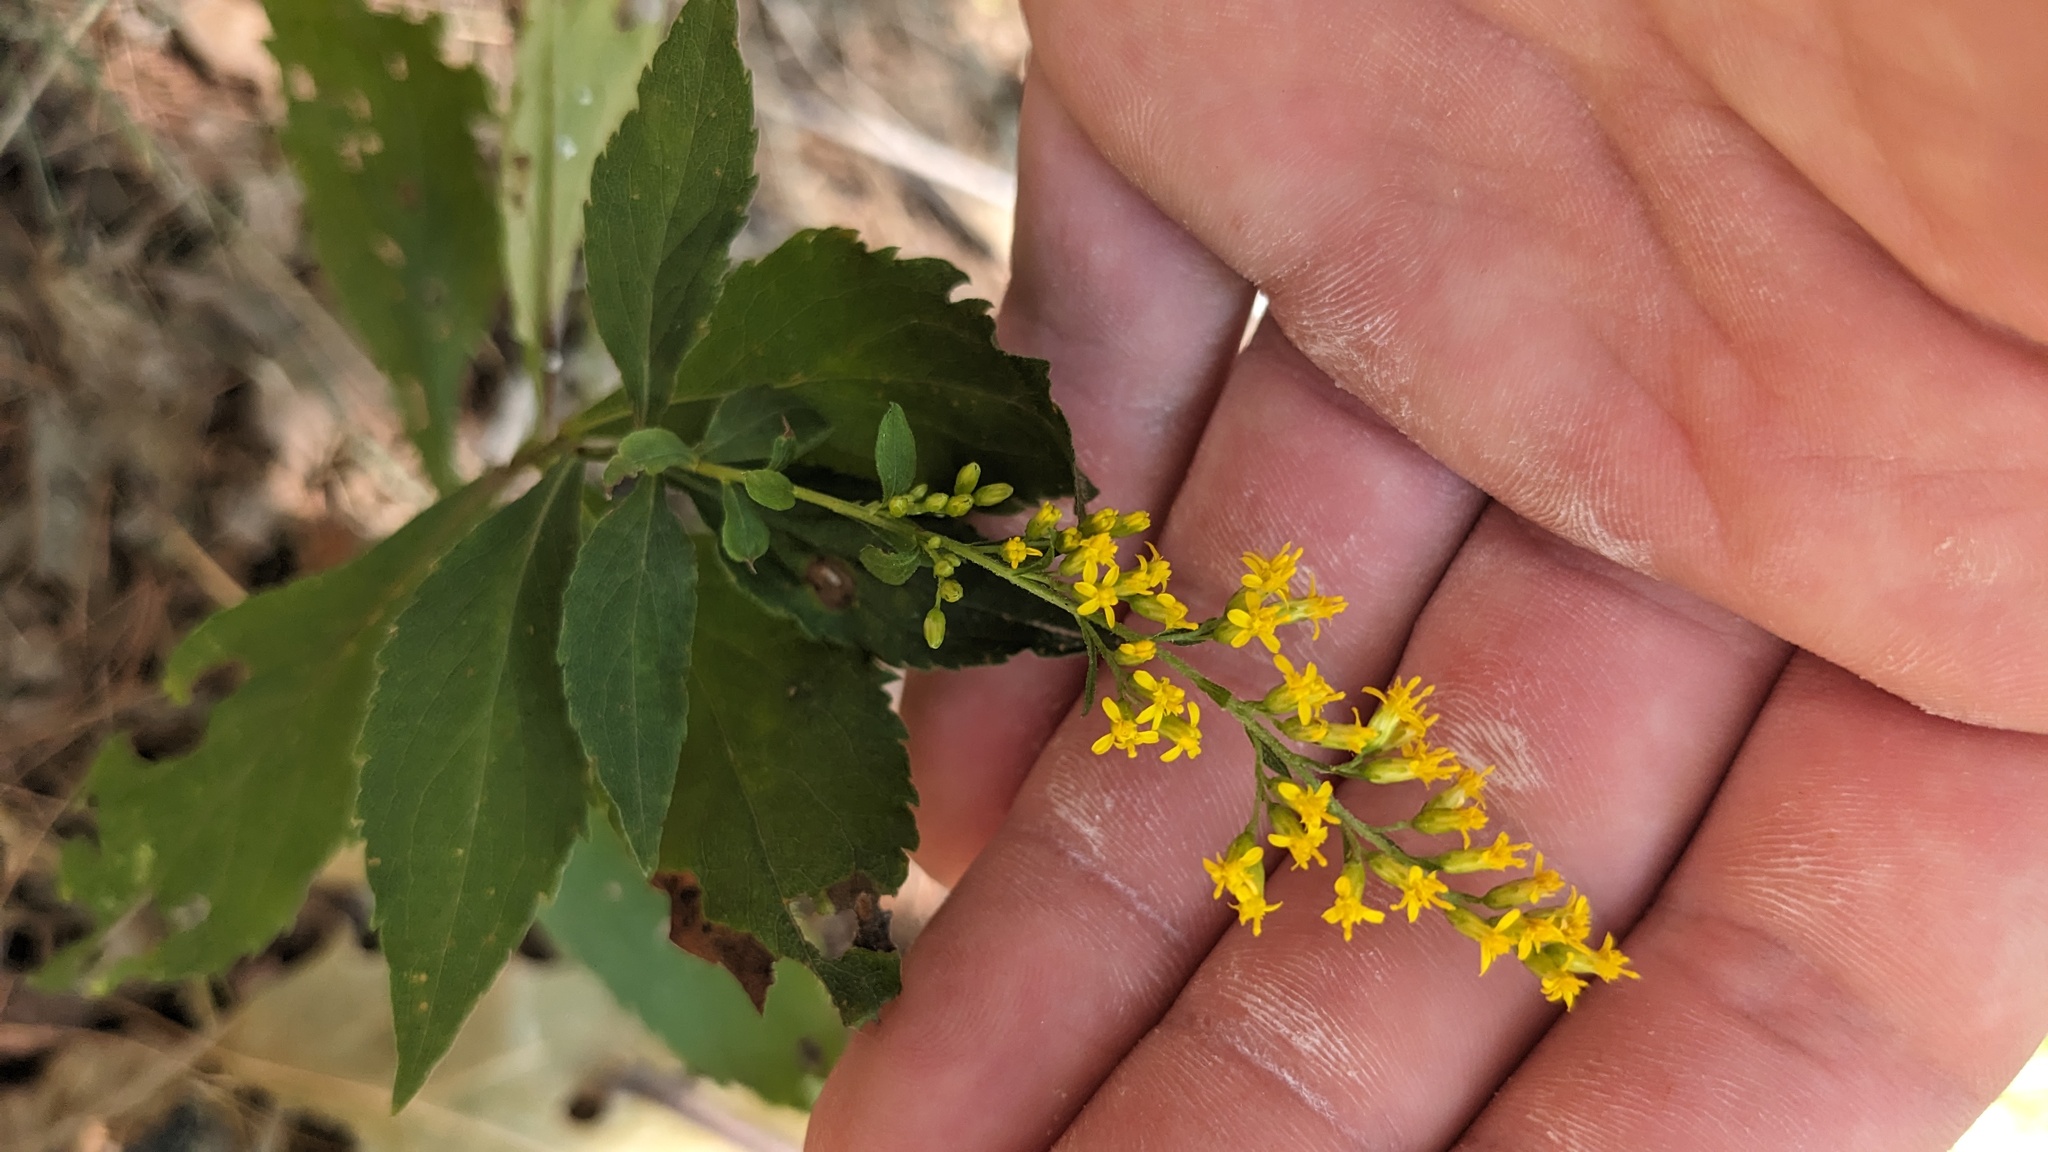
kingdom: Plantae
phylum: Tracheophyta
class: Magnoliopsida
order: Asterales
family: Asteraceae
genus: Solidago
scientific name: Solidago ulmifolia
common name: Elm-leaf goldenrod
